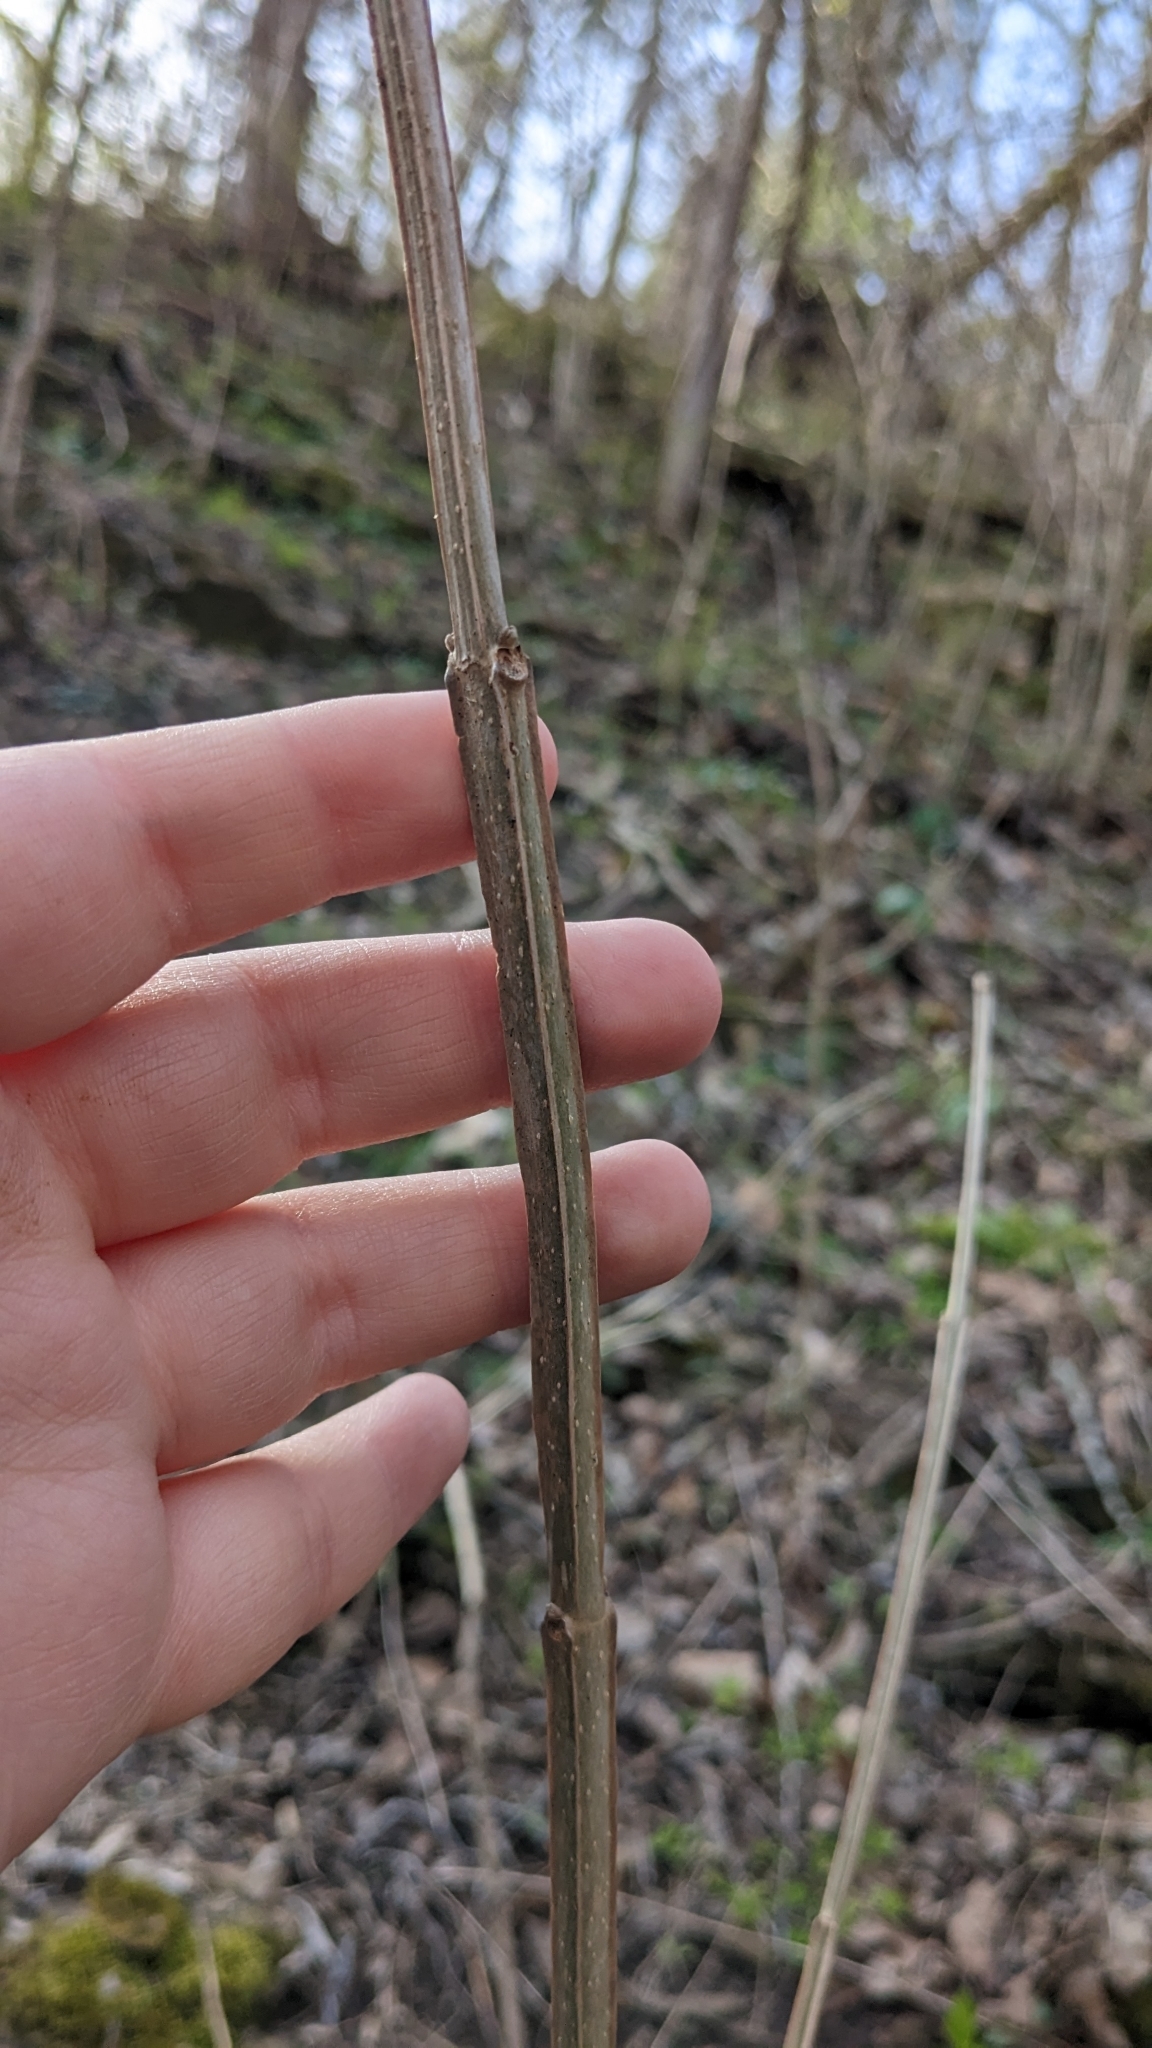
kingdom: Plantae
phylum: Tracheophyta
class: Magnoliopsida
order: Lamiales
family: Oleaceae
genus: Fraxinus
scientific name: Fraxinus quadrangulata
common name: Blue ash
